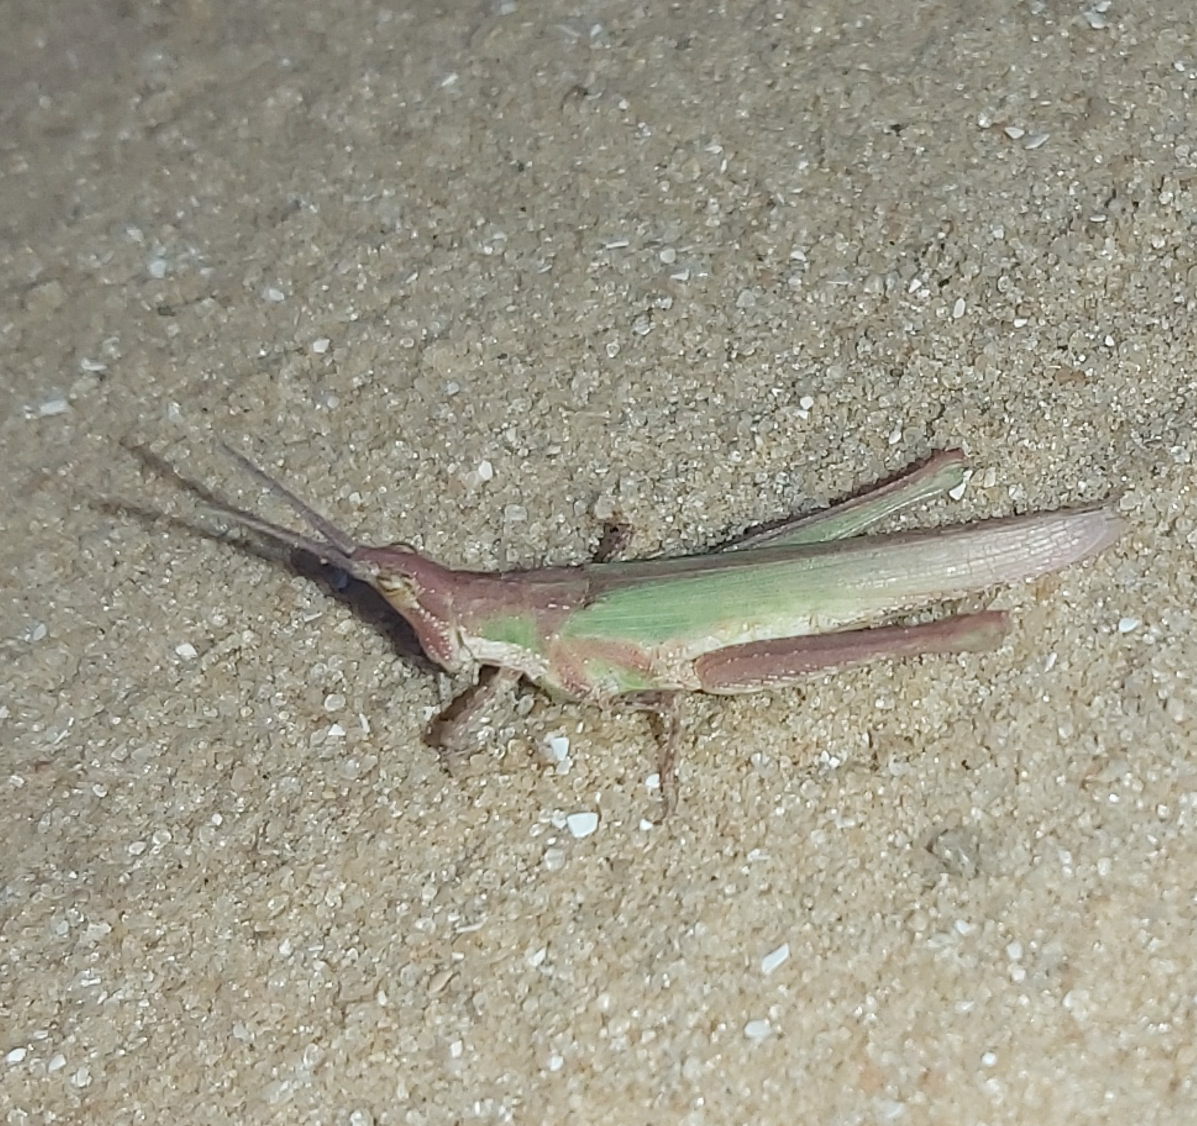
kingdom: Animalia
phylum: Arthropoda
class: Insecta
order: Orthoptera
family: Pyrgomorphidae
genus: Pyrgomorpha
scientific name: Pyrgomorpha conica
